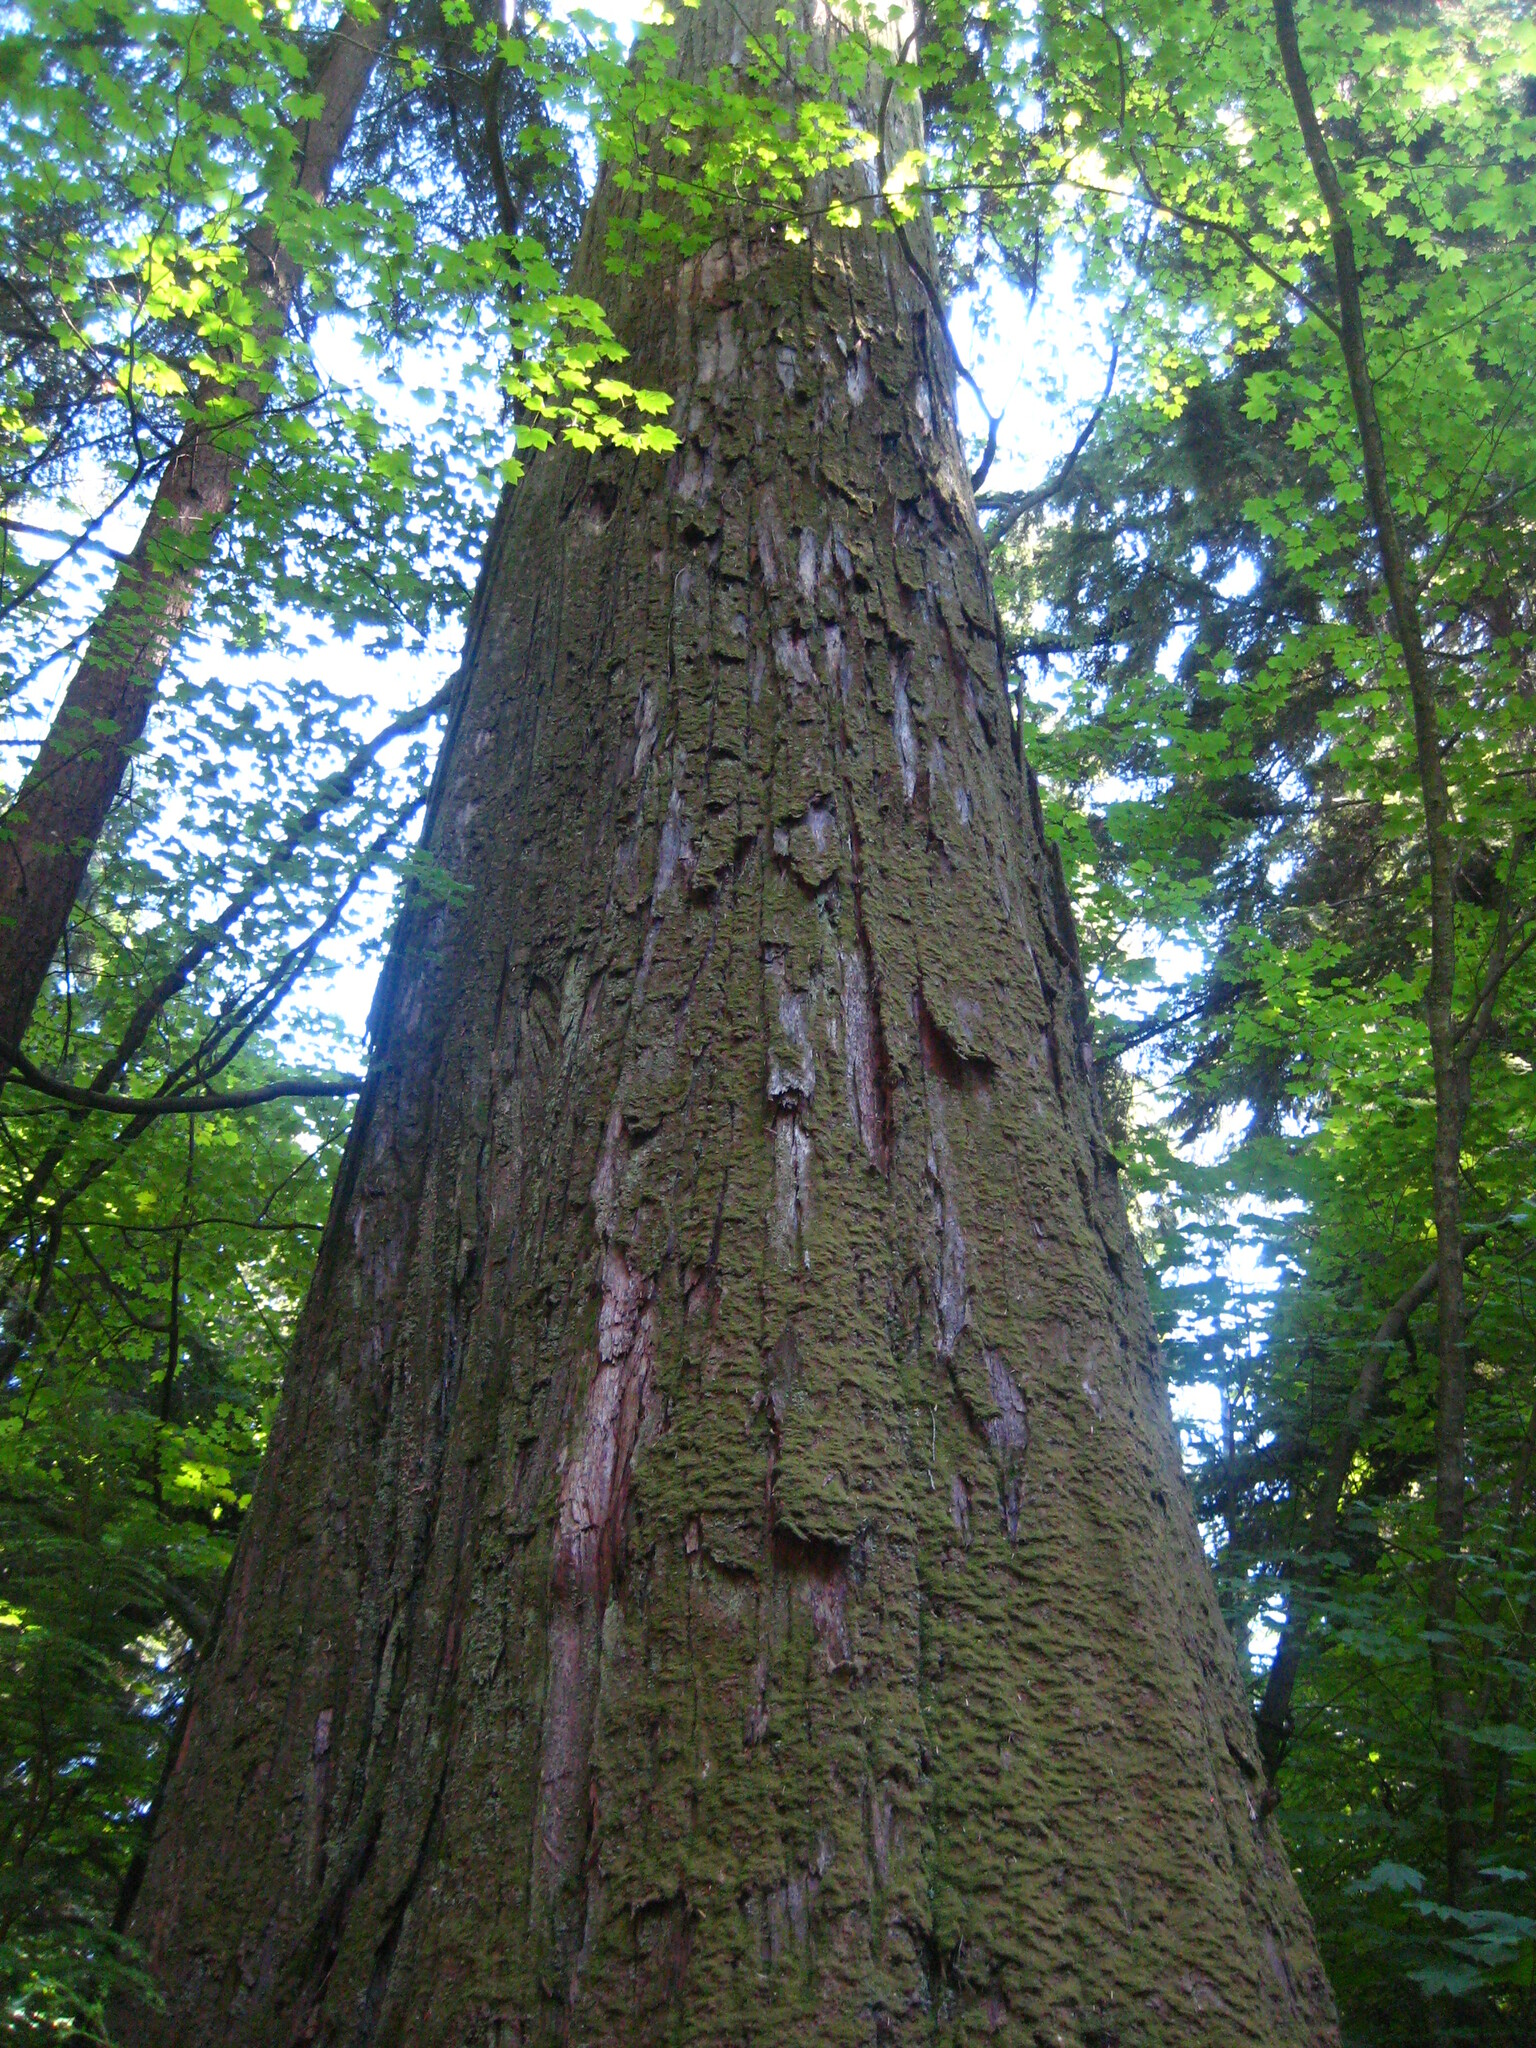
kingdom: Plantae
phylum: Tracheophyta
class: Pinopsida
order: Pinales
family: Cupressaceae
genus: Thuja
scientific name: Thuja plicata
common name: Western red-cedar
